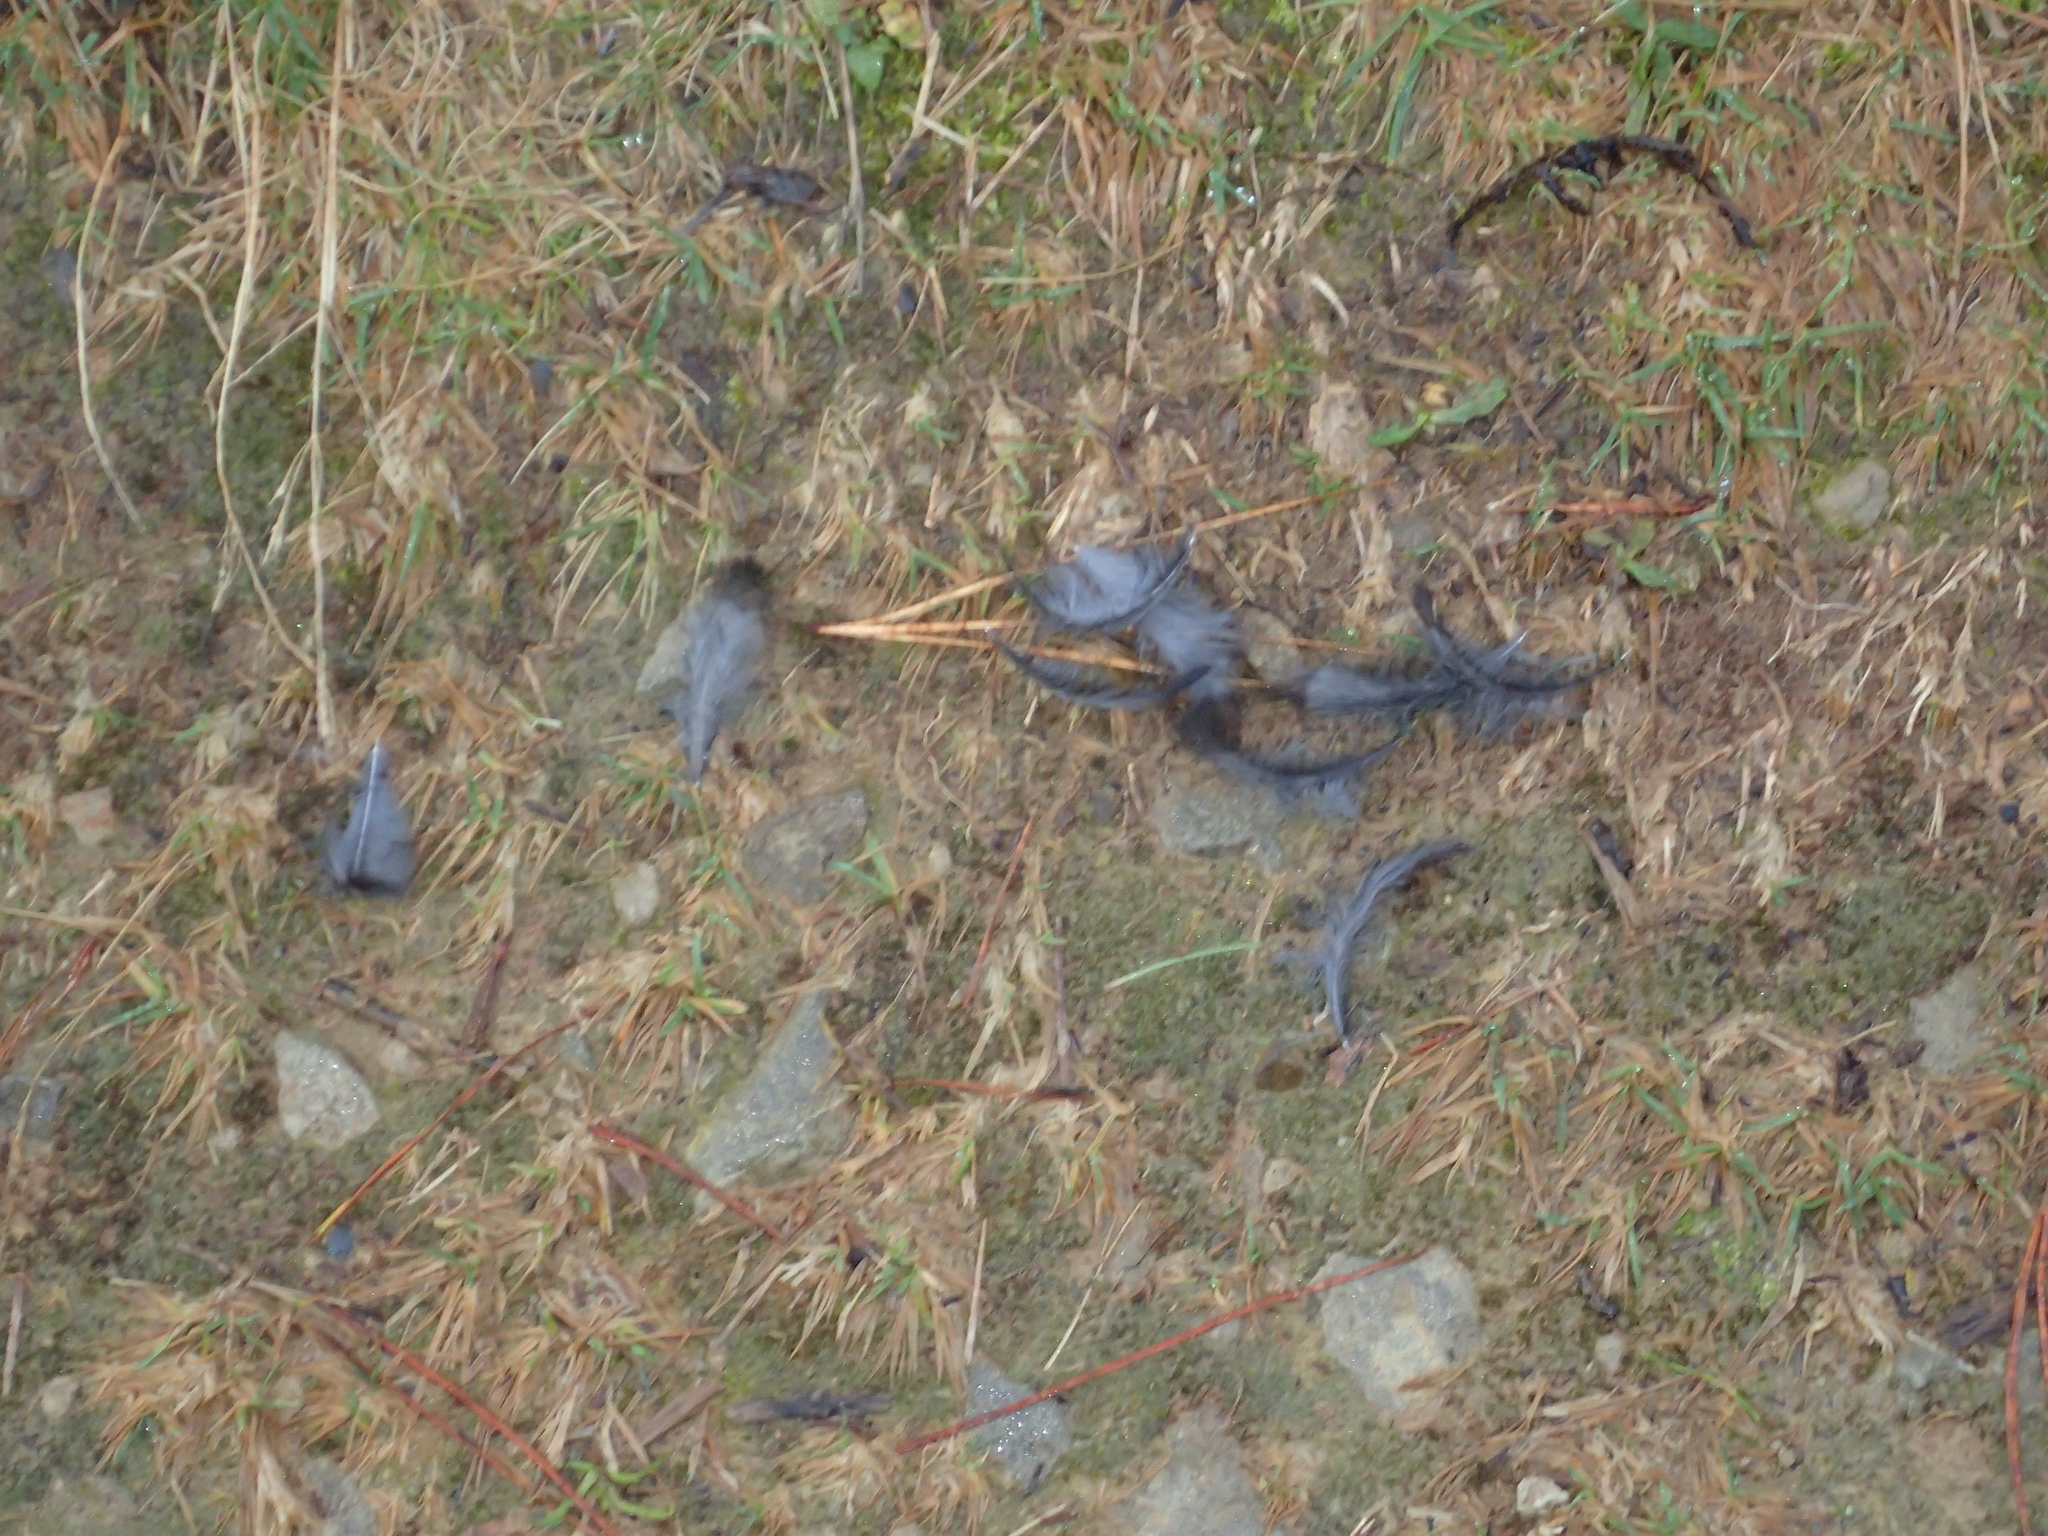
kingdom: Animalia
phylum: Chordata
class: Aves
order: Passeriformes
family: Turdidae
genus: Turdus
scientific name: Turdus merula
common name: Common blackbird
